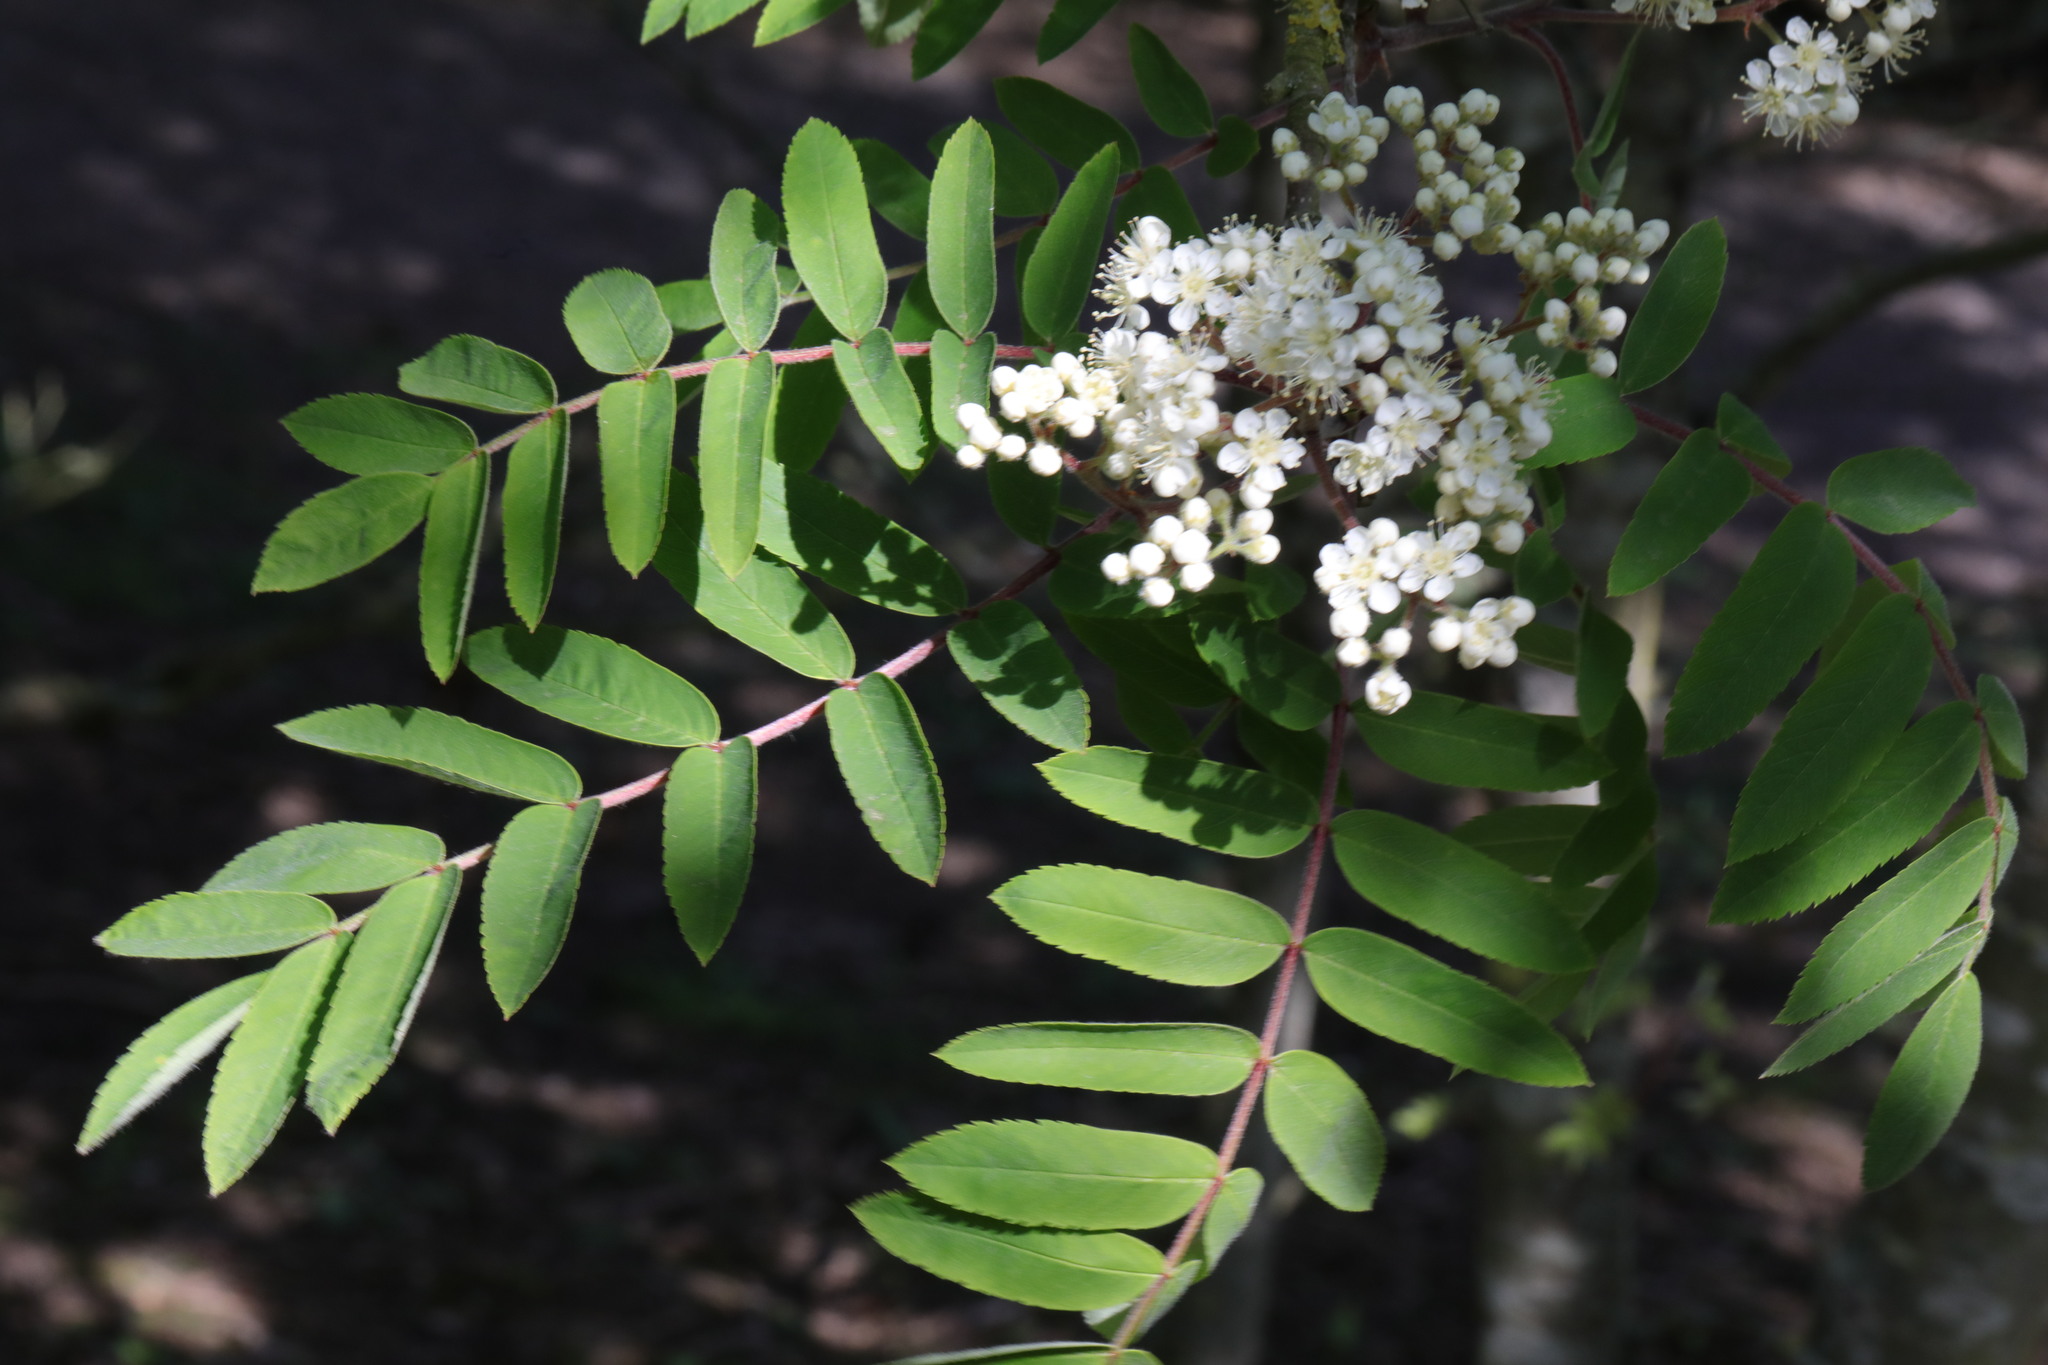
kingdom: Plantae
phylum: Tracheophyta
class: Magnoliopsida
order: Rosales
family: Rosaceae
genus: Sorbus
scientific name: Sorbus aucuparia
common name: Rowan
